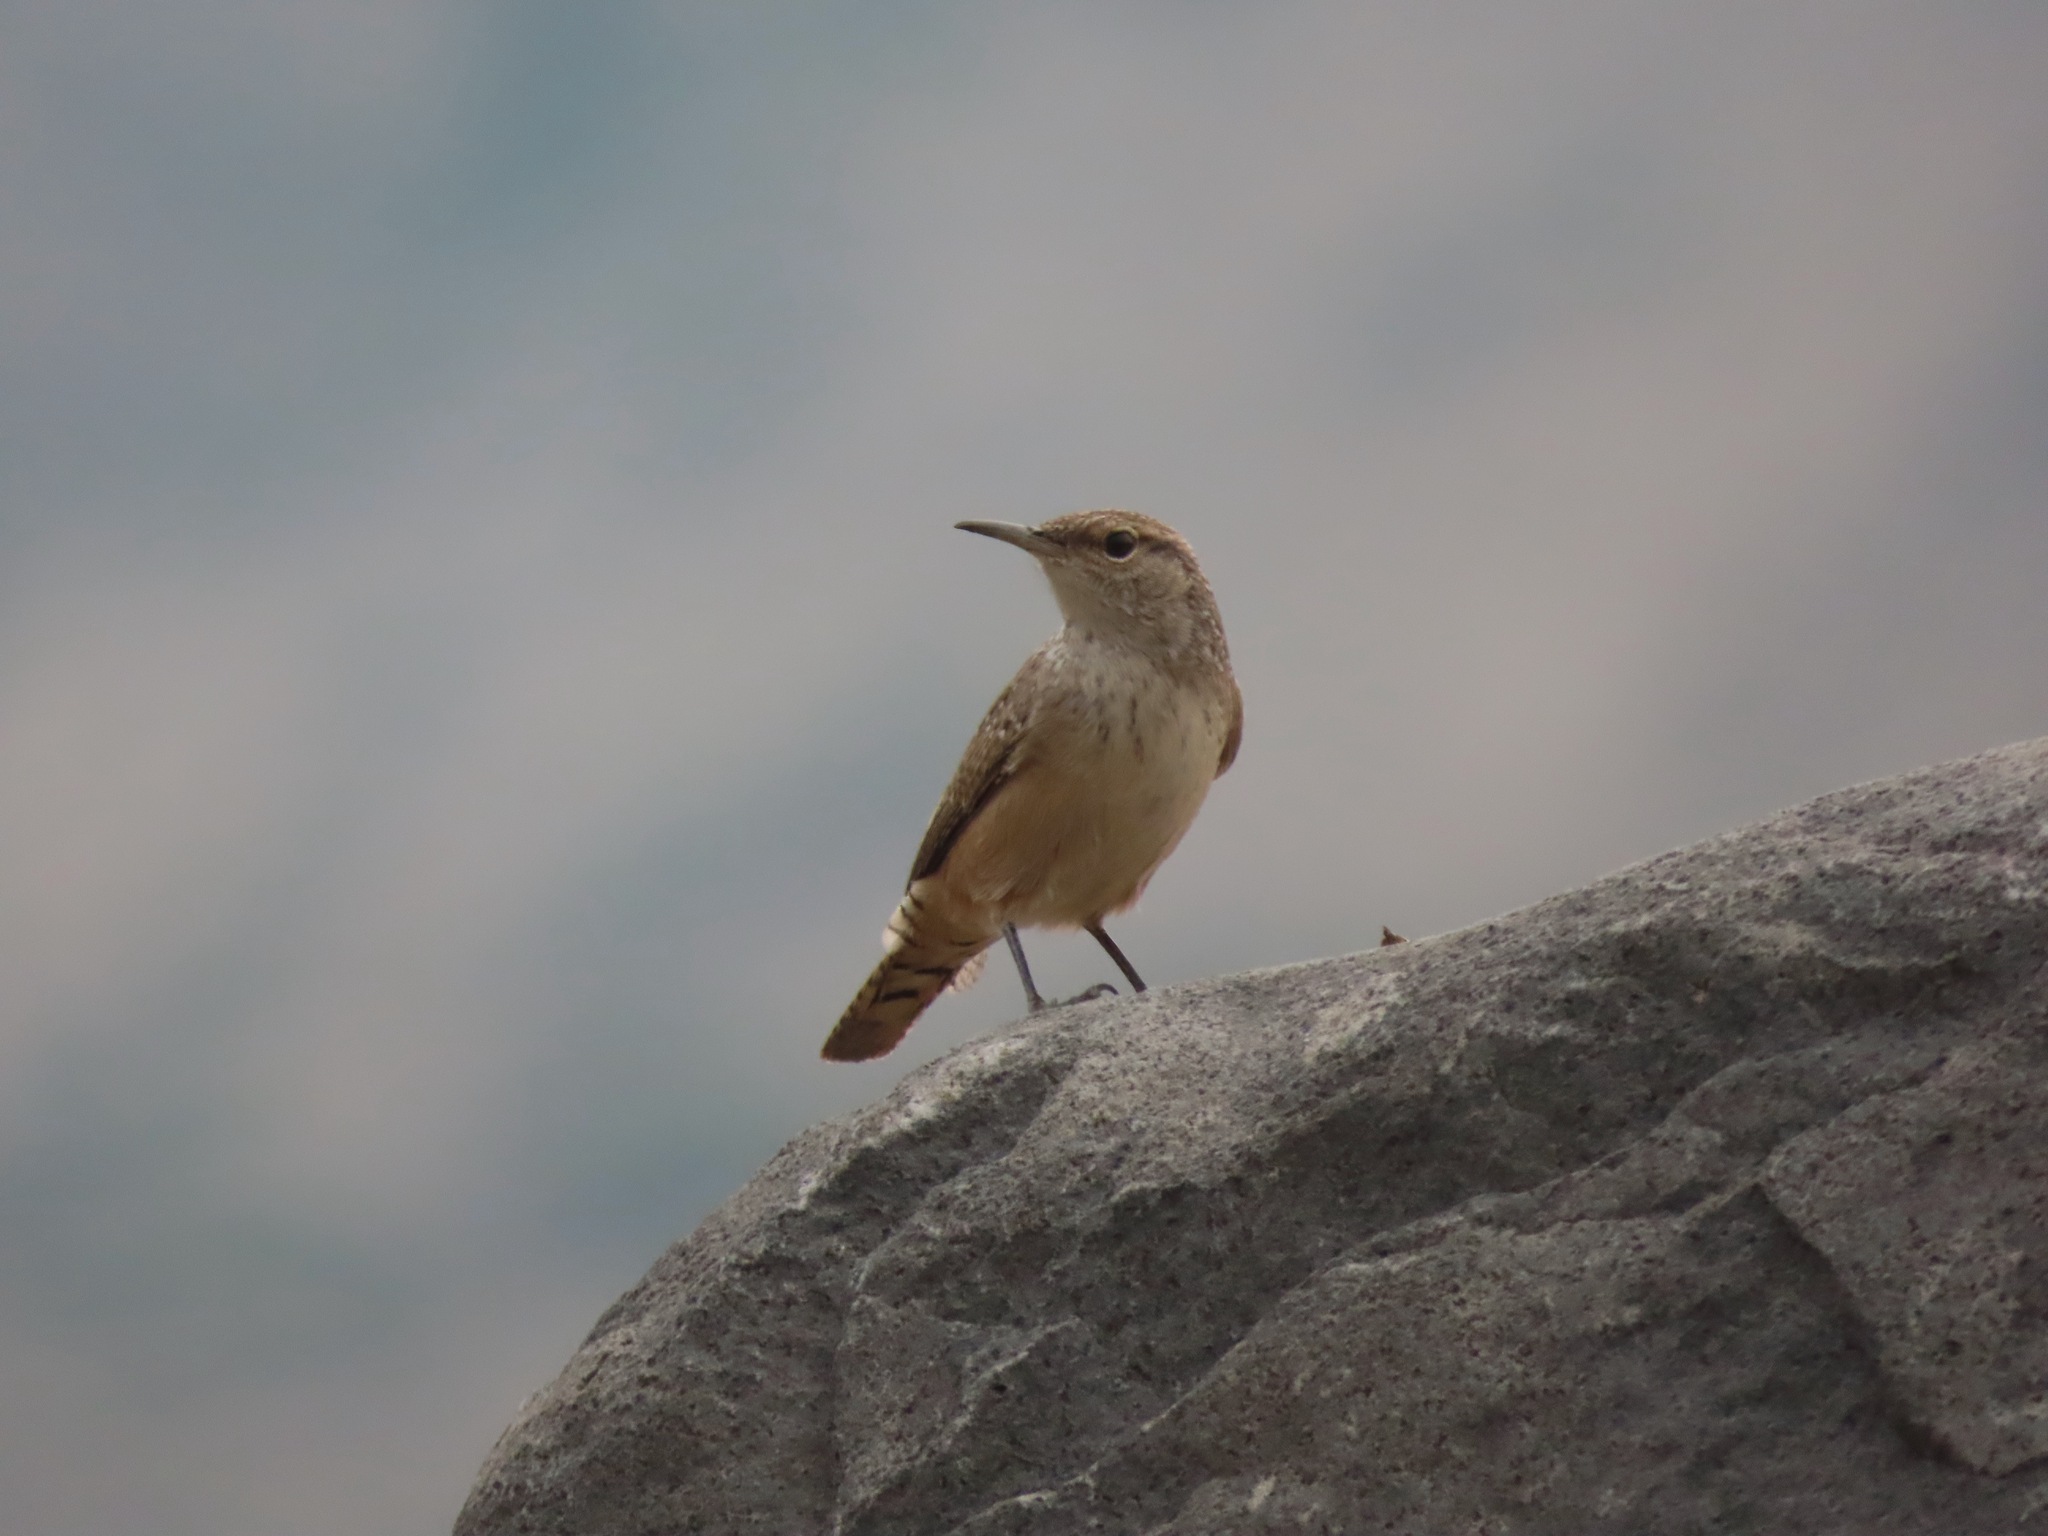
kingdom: Animalia
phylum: Chordata
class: Aves
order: Passeriformes
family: Troglodytidae
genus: Salpinctes
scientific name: Salpinctes obsoletus
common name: Rock wren
